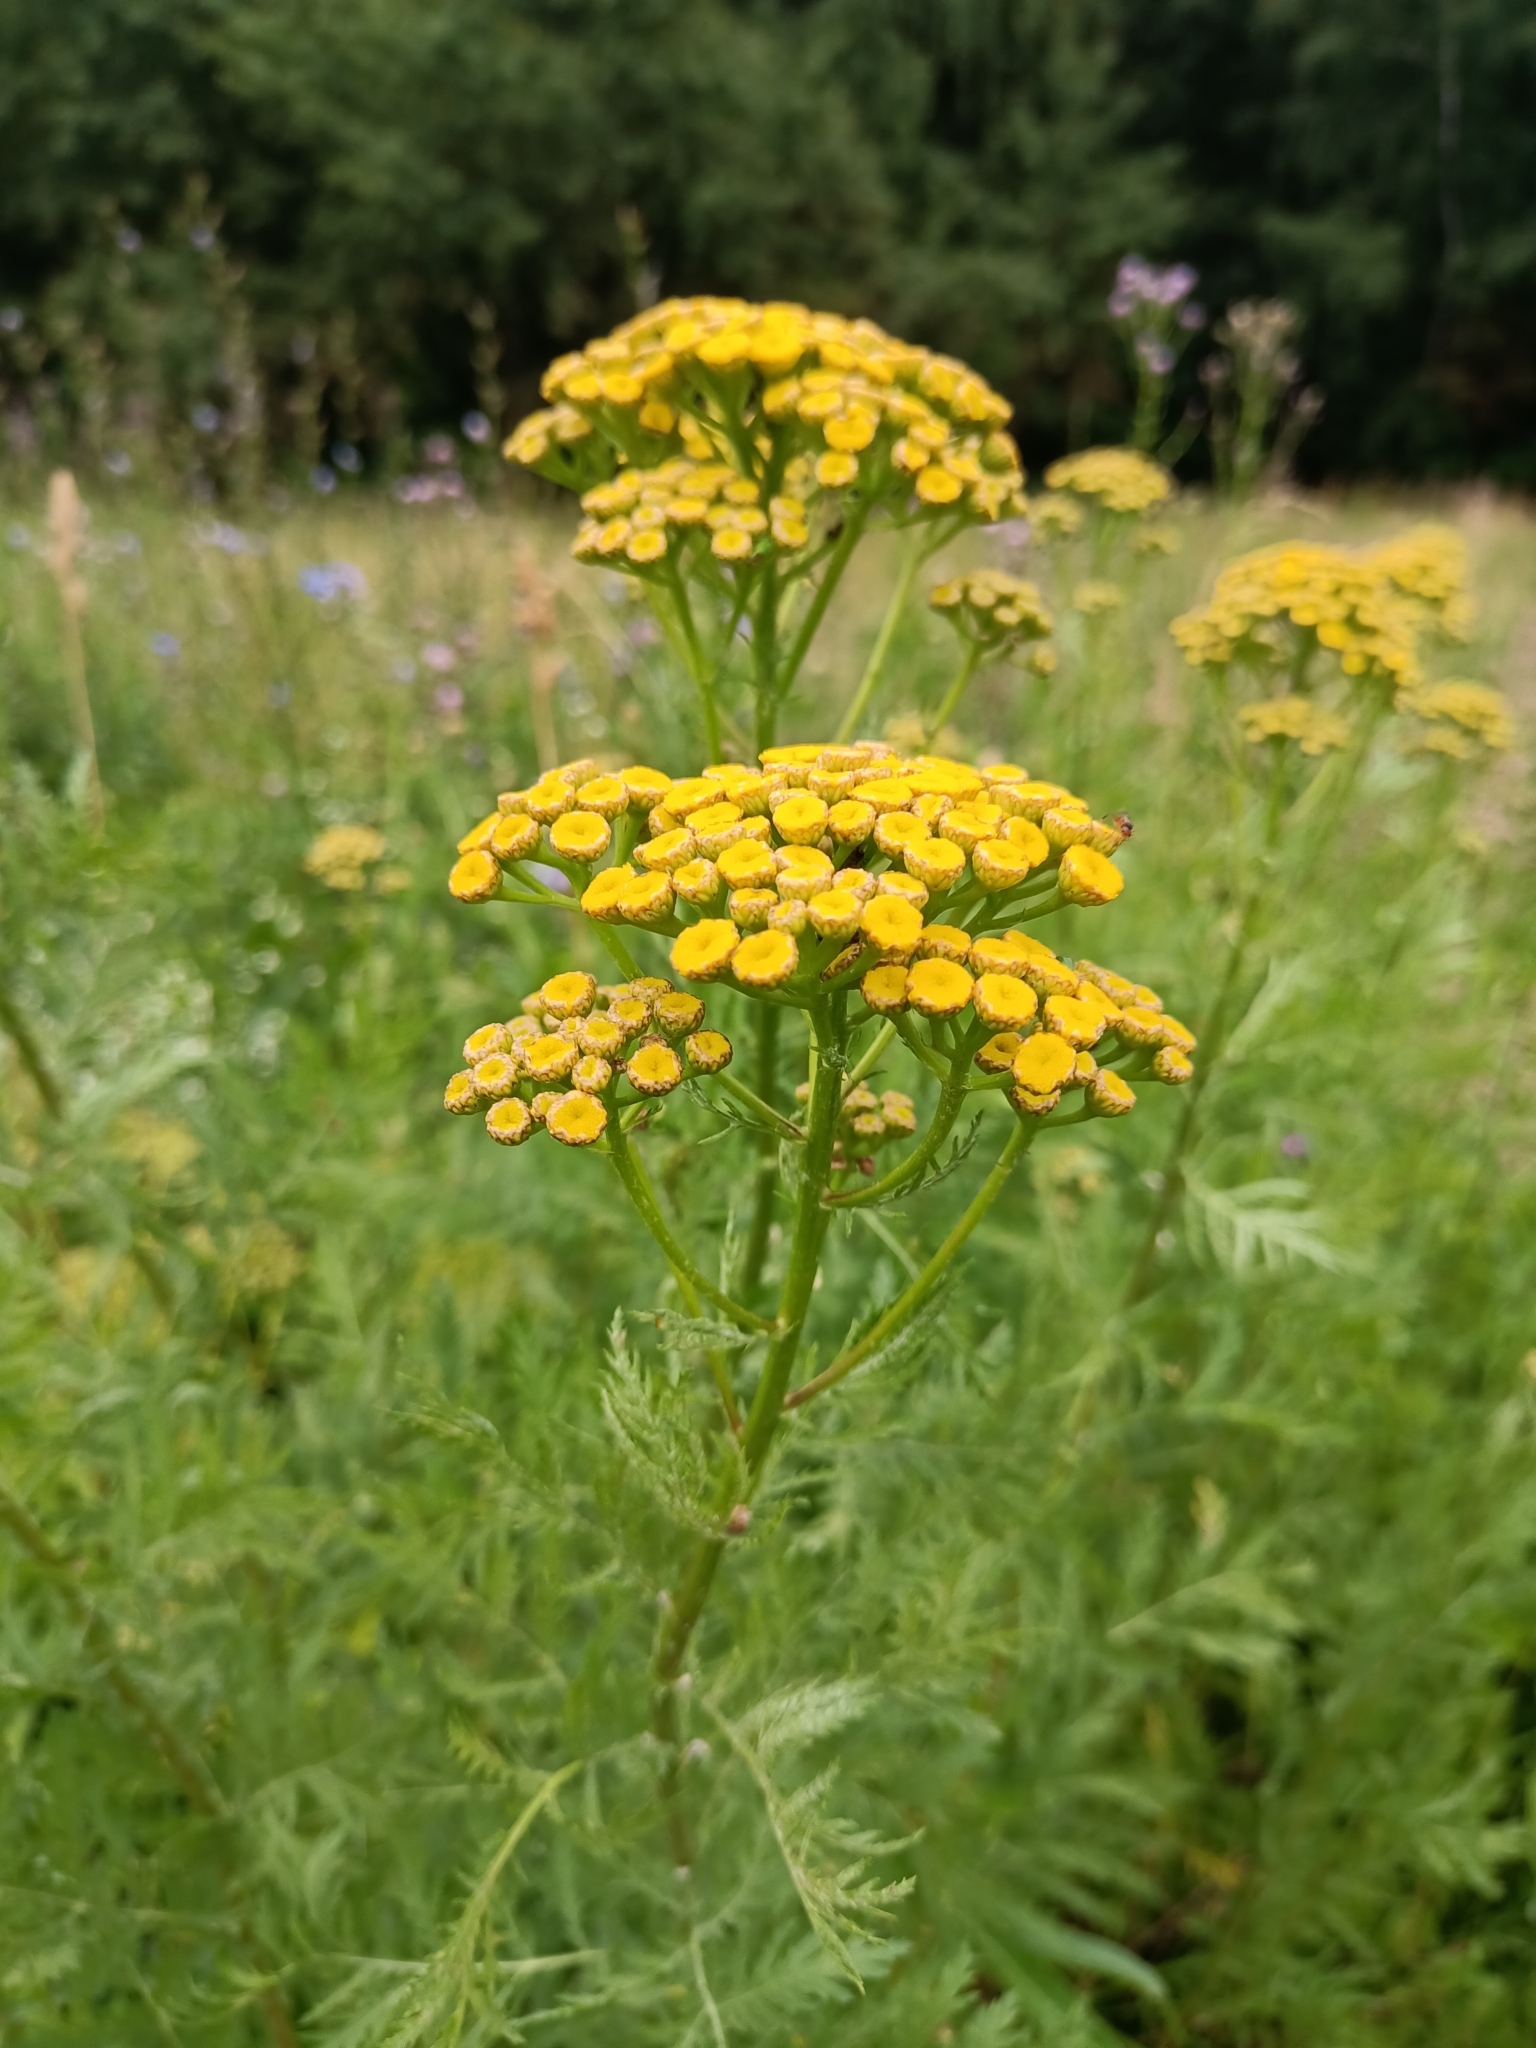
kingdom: Plantae
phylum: Tracheophyta
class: Magnoliopsida
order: Asterales
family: Asteraceae
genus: Tanacetum
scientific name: Tanacetum vulgare
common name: Common tansy
